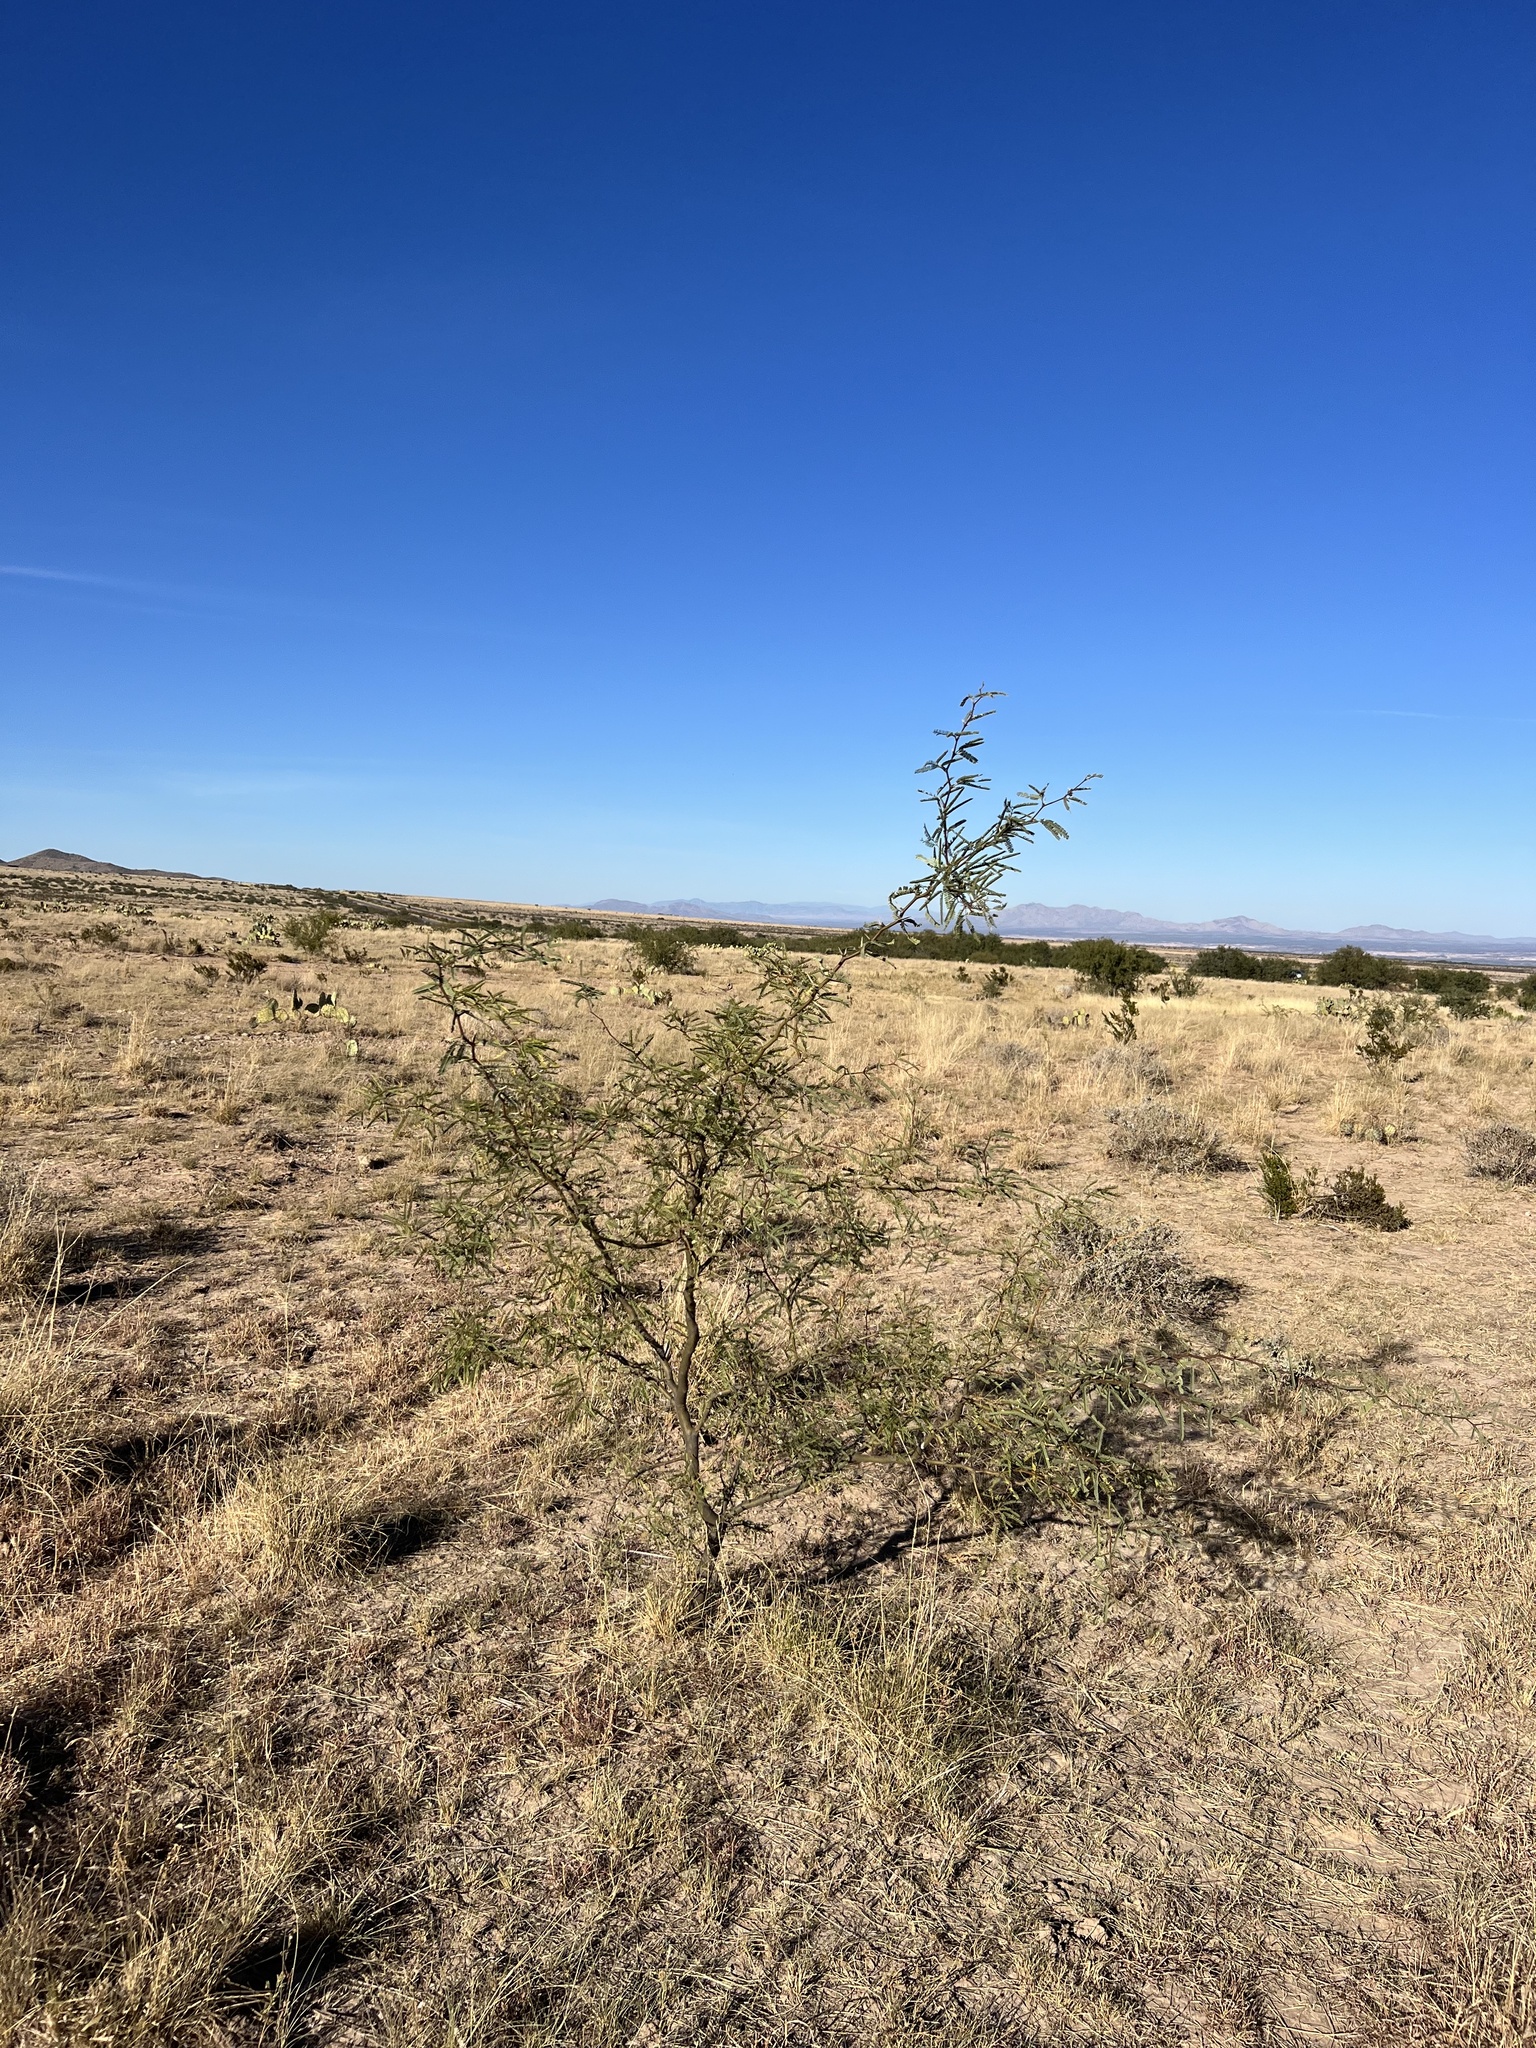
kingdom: Plantae
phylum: Tracheophyta
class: Magnoliopsida
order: Fabales
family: Fabaceae
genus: Prosopis
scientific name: Prosopis velutina
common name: Velvet mesquite
